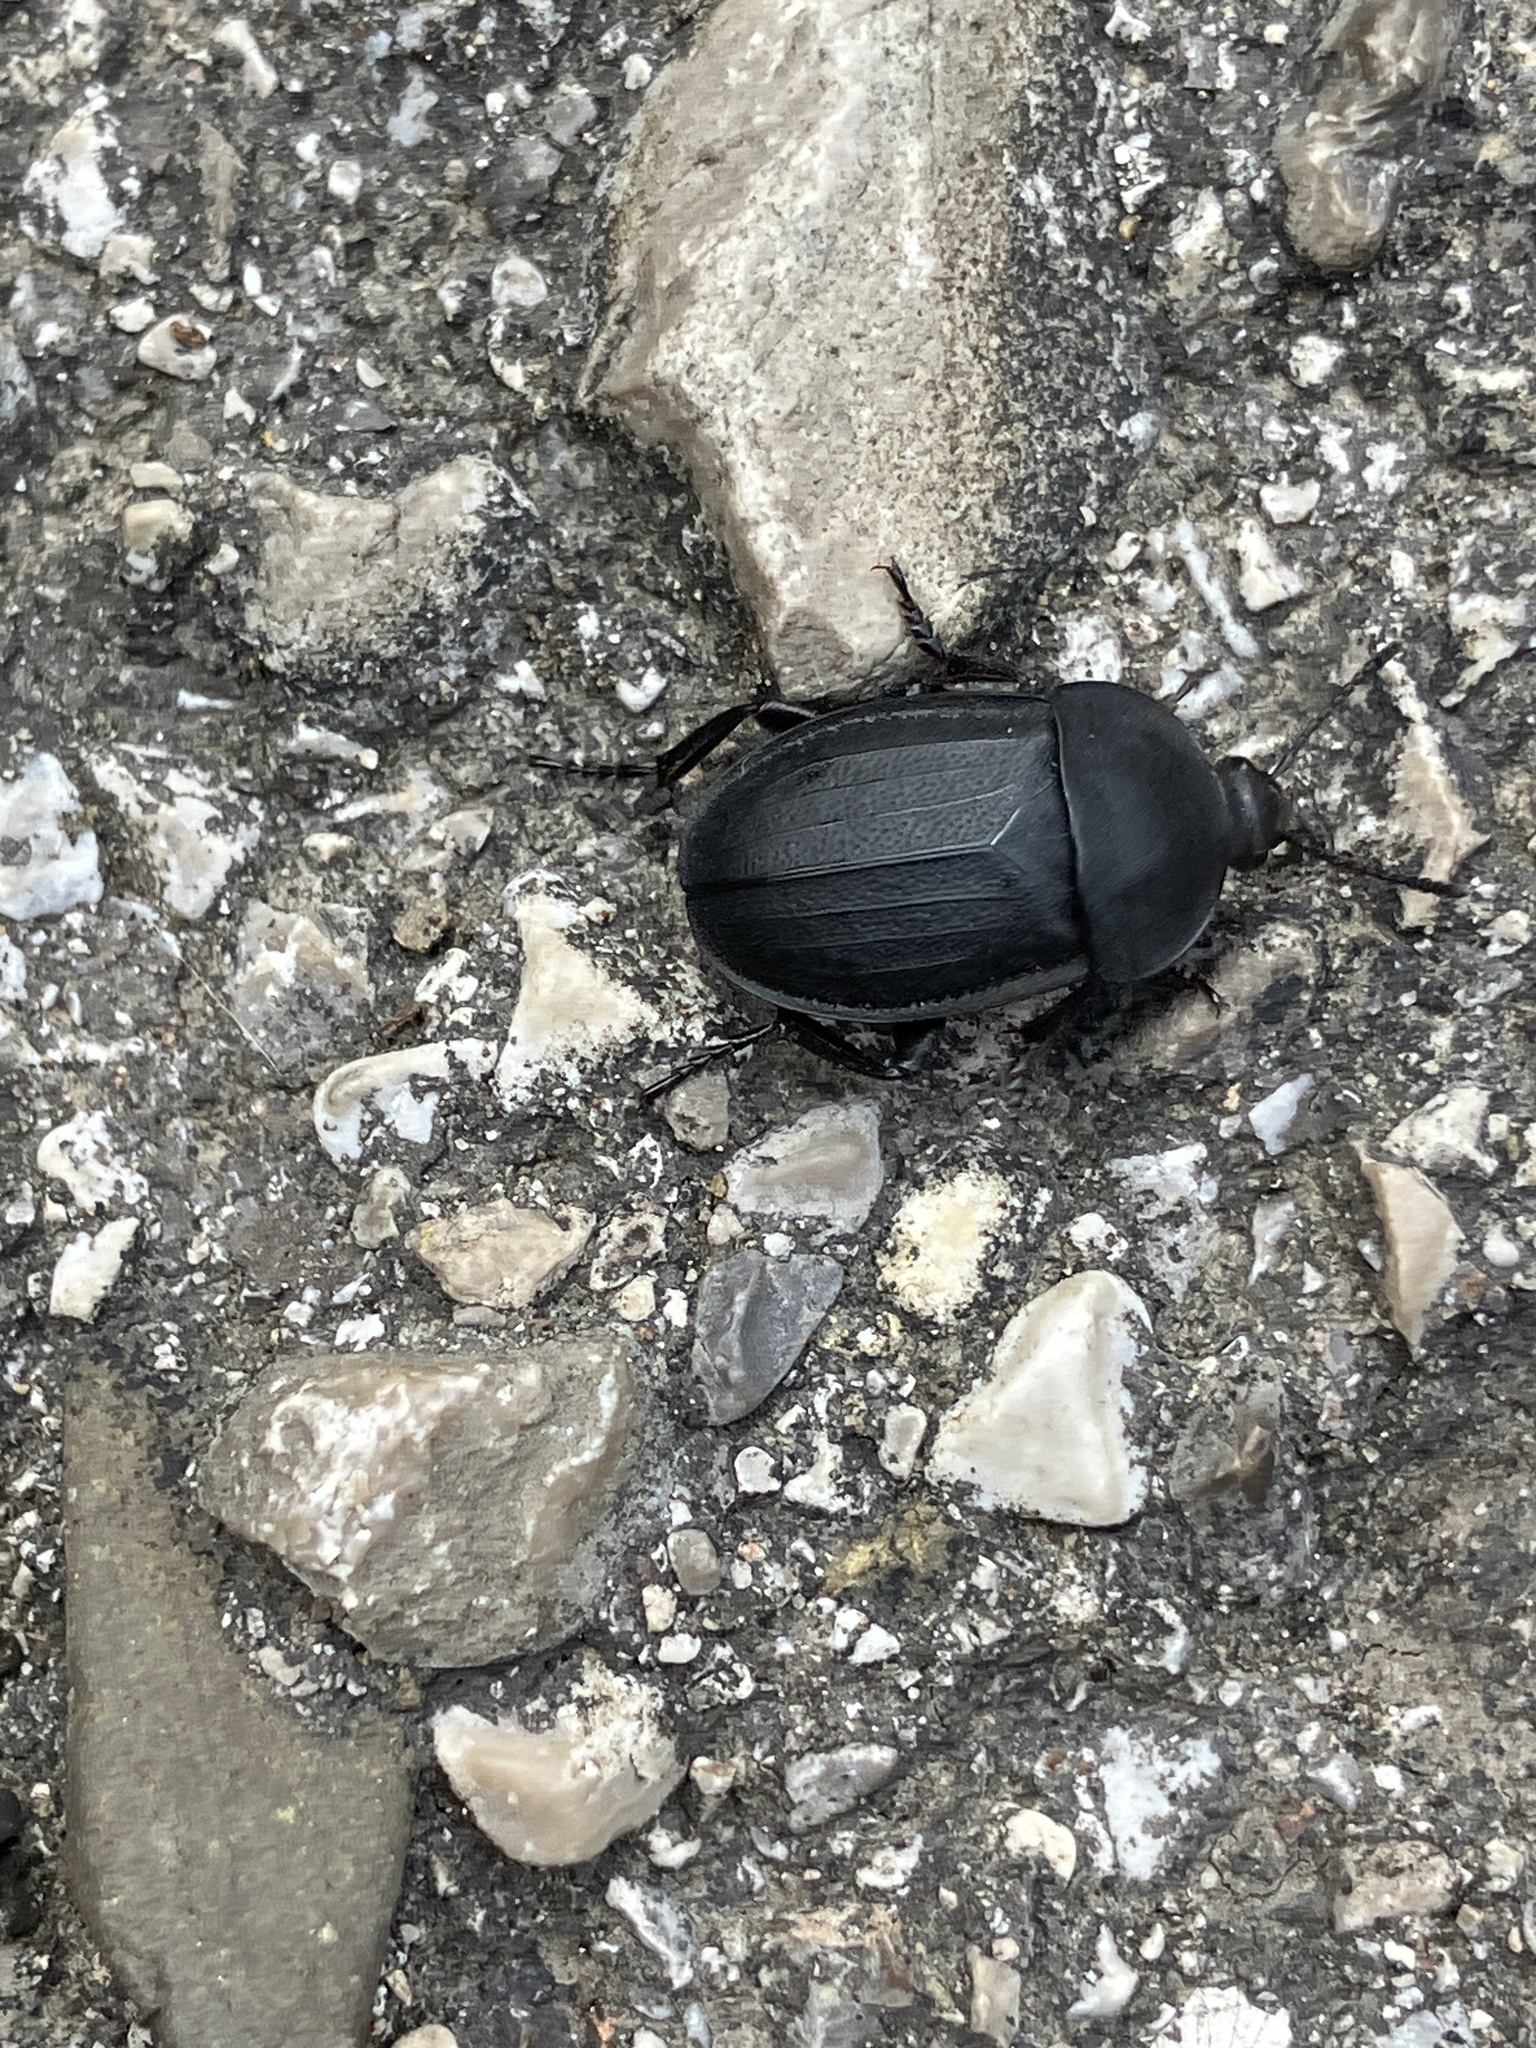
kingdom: Animalia
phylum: Arthropoda
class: Insecta
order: Coleoptera
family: Staphylinidae
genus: Silpha
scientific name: Silpha obscura
